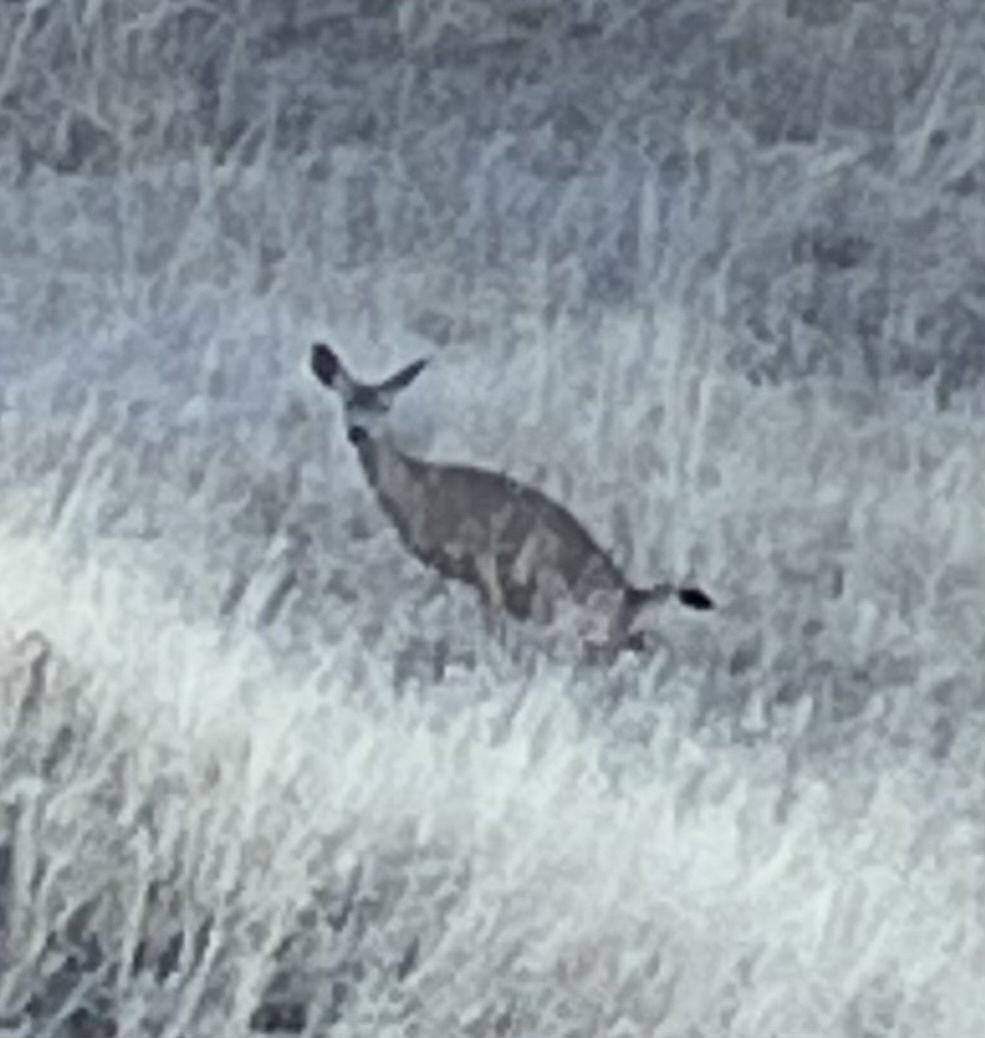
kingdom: Animalia
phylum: Chordata
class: Mammalia
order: Artiodactyla
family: Cervidae
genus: Odocoileus
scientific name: Odocoileus hemionus
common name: Mule deer
